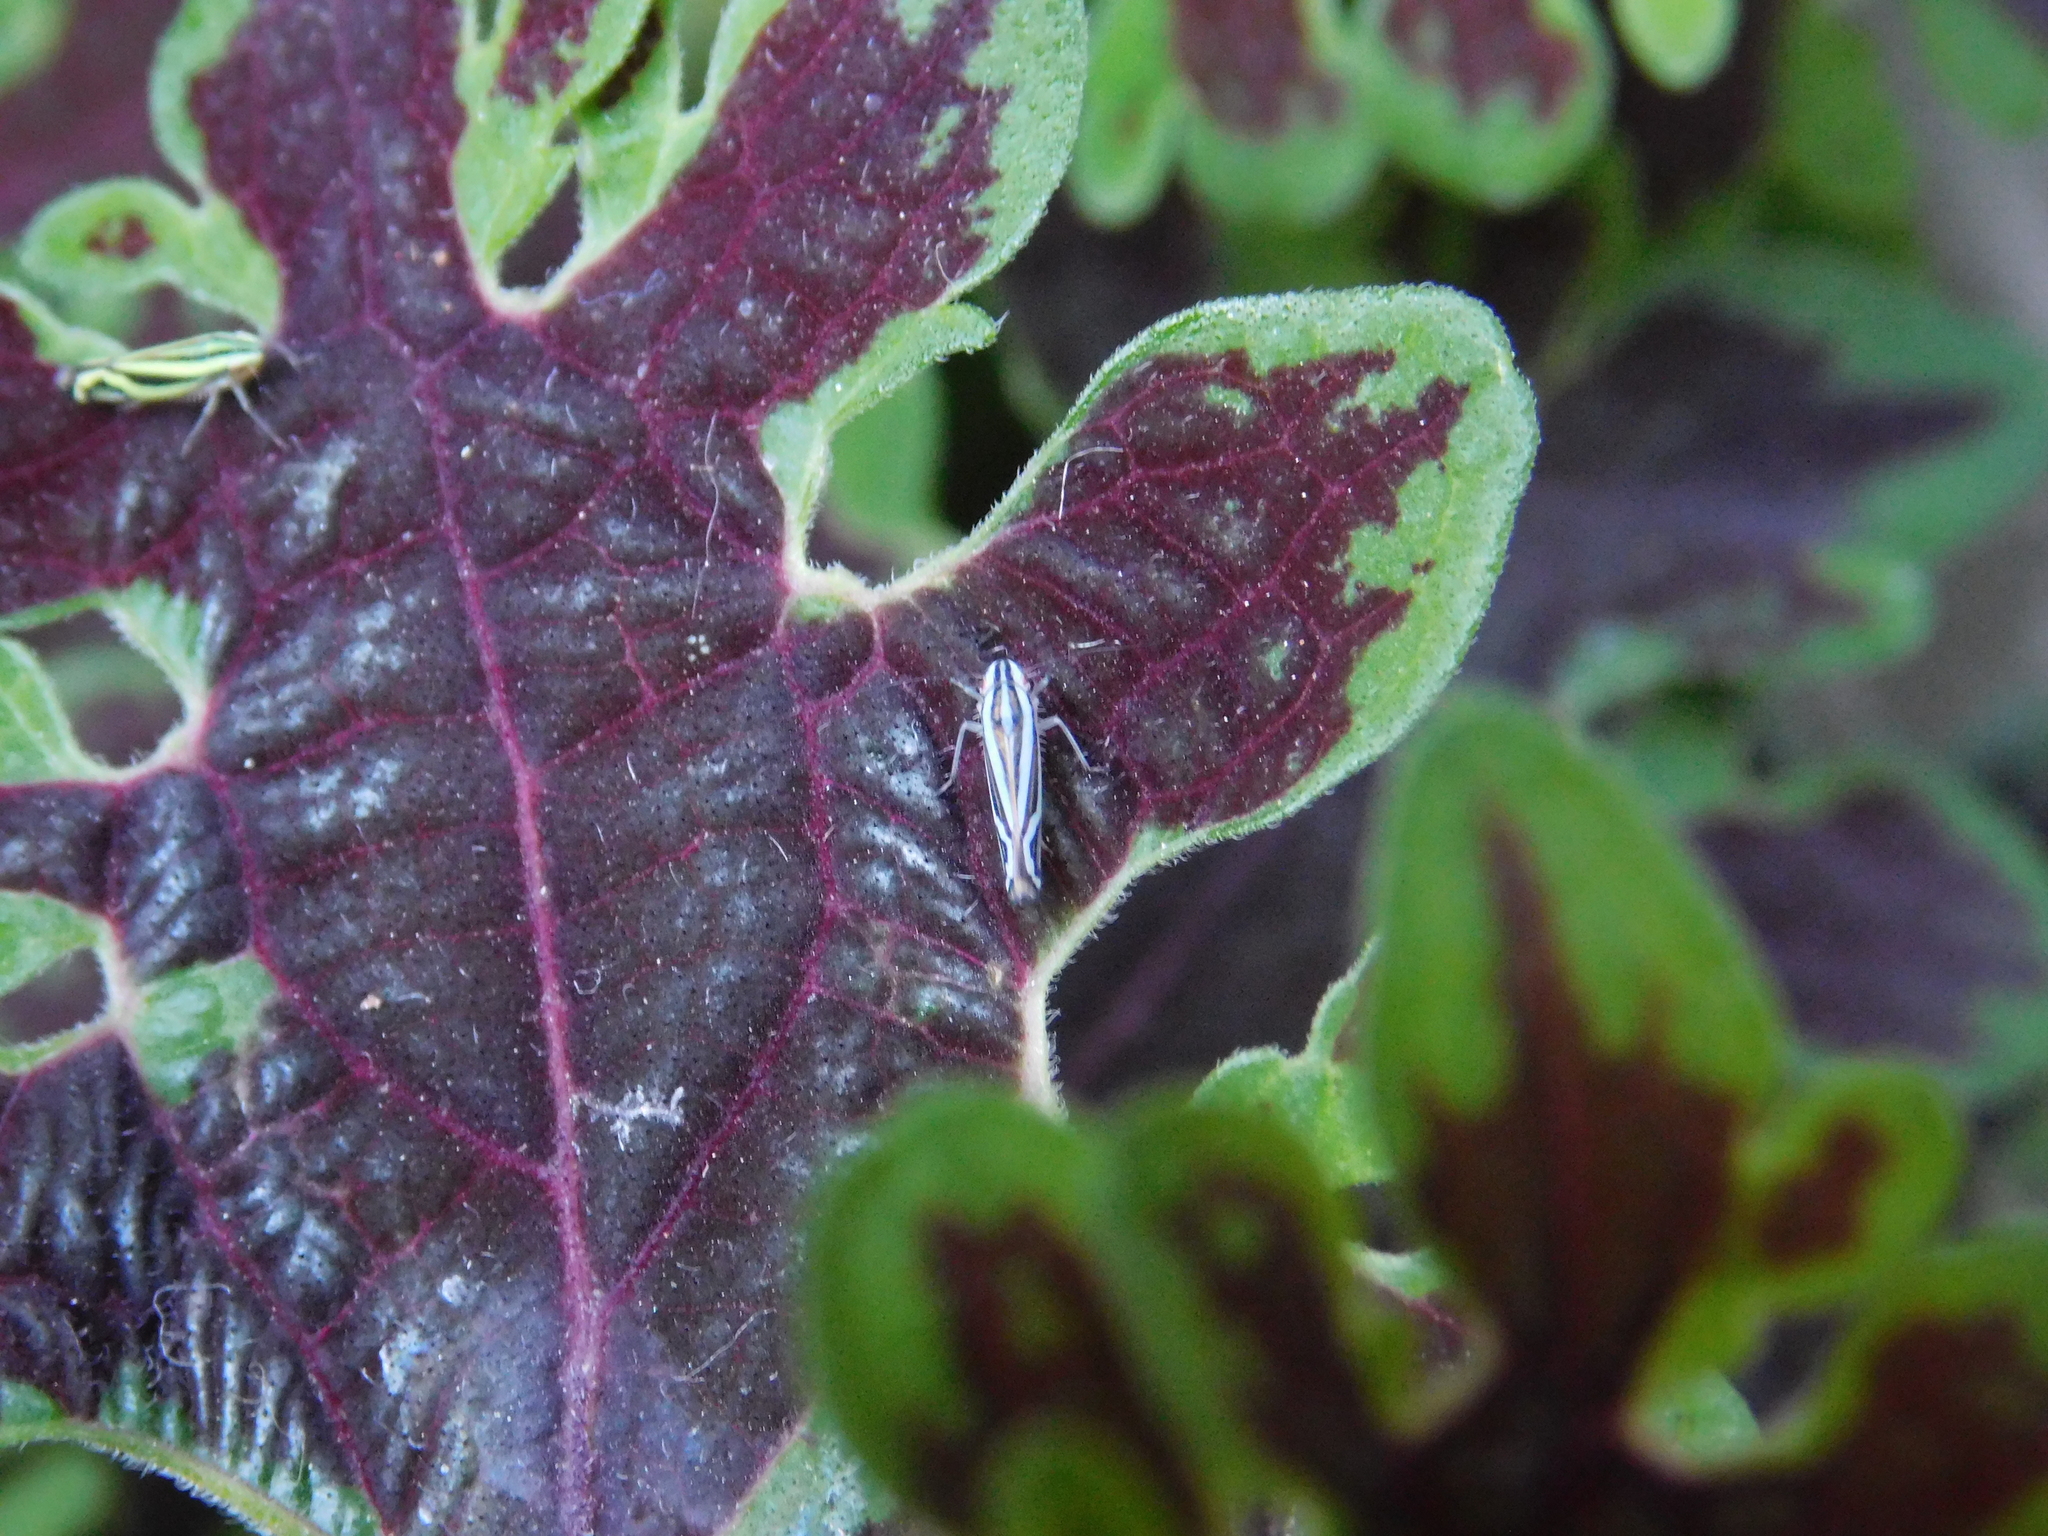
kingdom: Animalia
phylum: Arthropoda
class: Insecta
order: Hemiptera
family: Cicadellidae
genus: Sibovia
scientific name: Sibovia sagata
